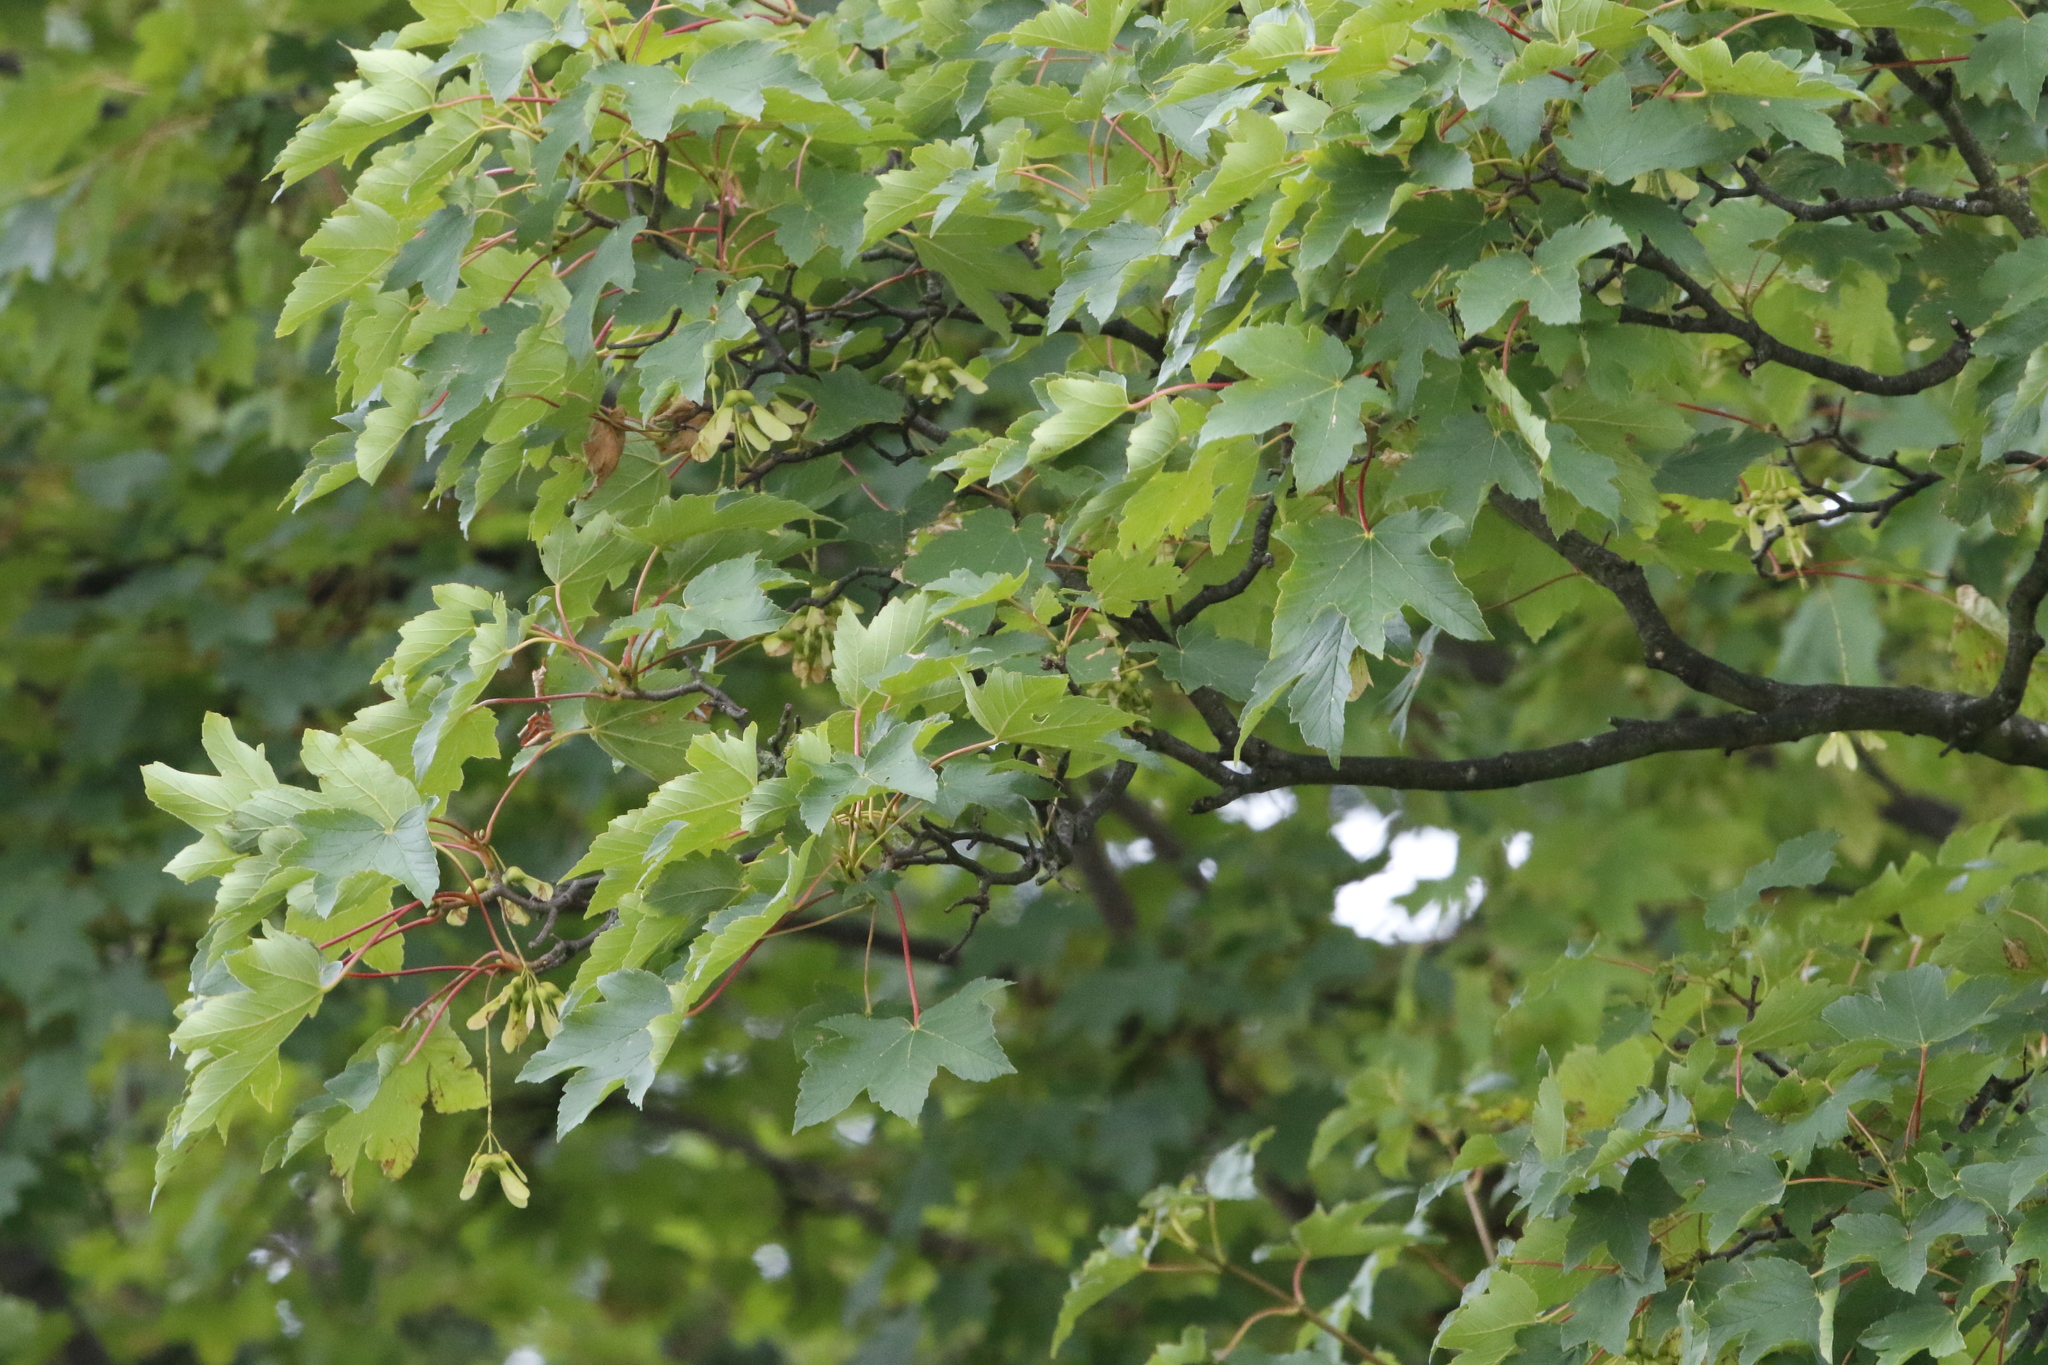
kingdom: Plantae
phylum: Tracheophyta
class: Magnoliopsida
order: Sapindales
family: Sapindaceae
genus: Acer
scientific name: Acer pseudoplatanus
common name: Sycamore
